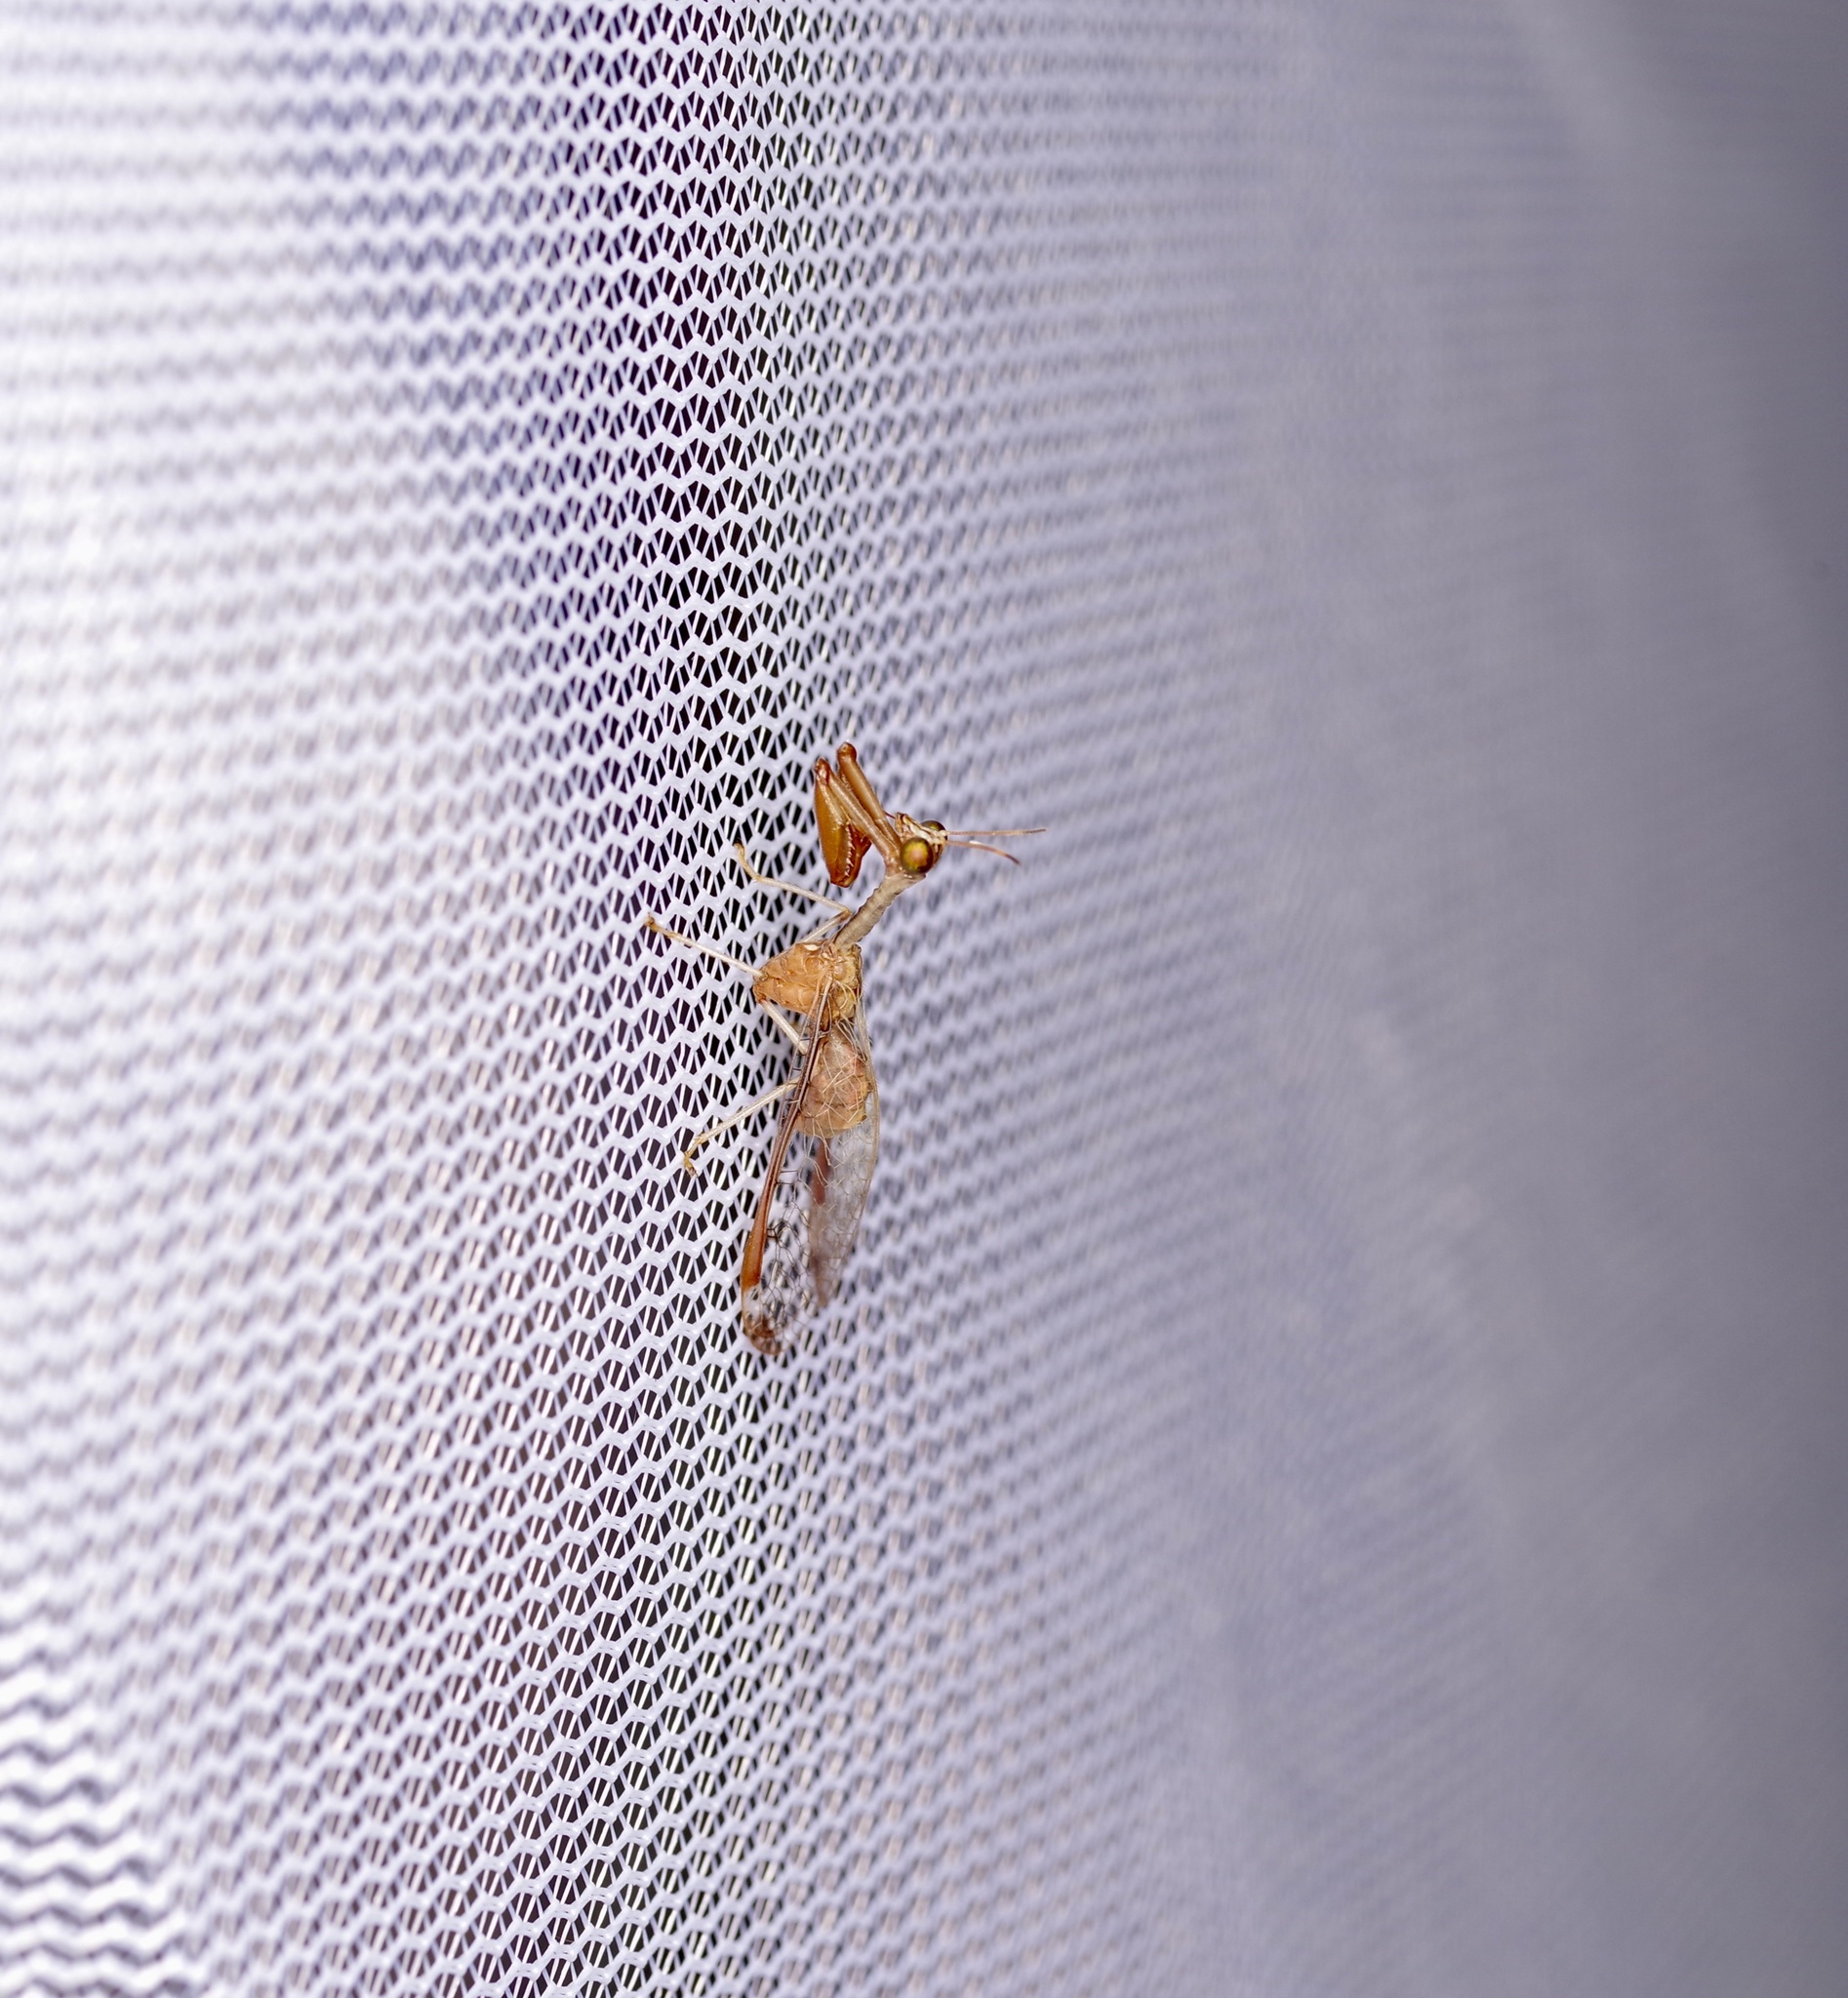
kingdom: Animalia
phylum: Arthropoda
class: Insecta
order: Neuroptera
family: Mantispidae
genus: Dicromantispa
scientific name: Dicromantispa interrupta
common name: Four-spotted mantidfly
